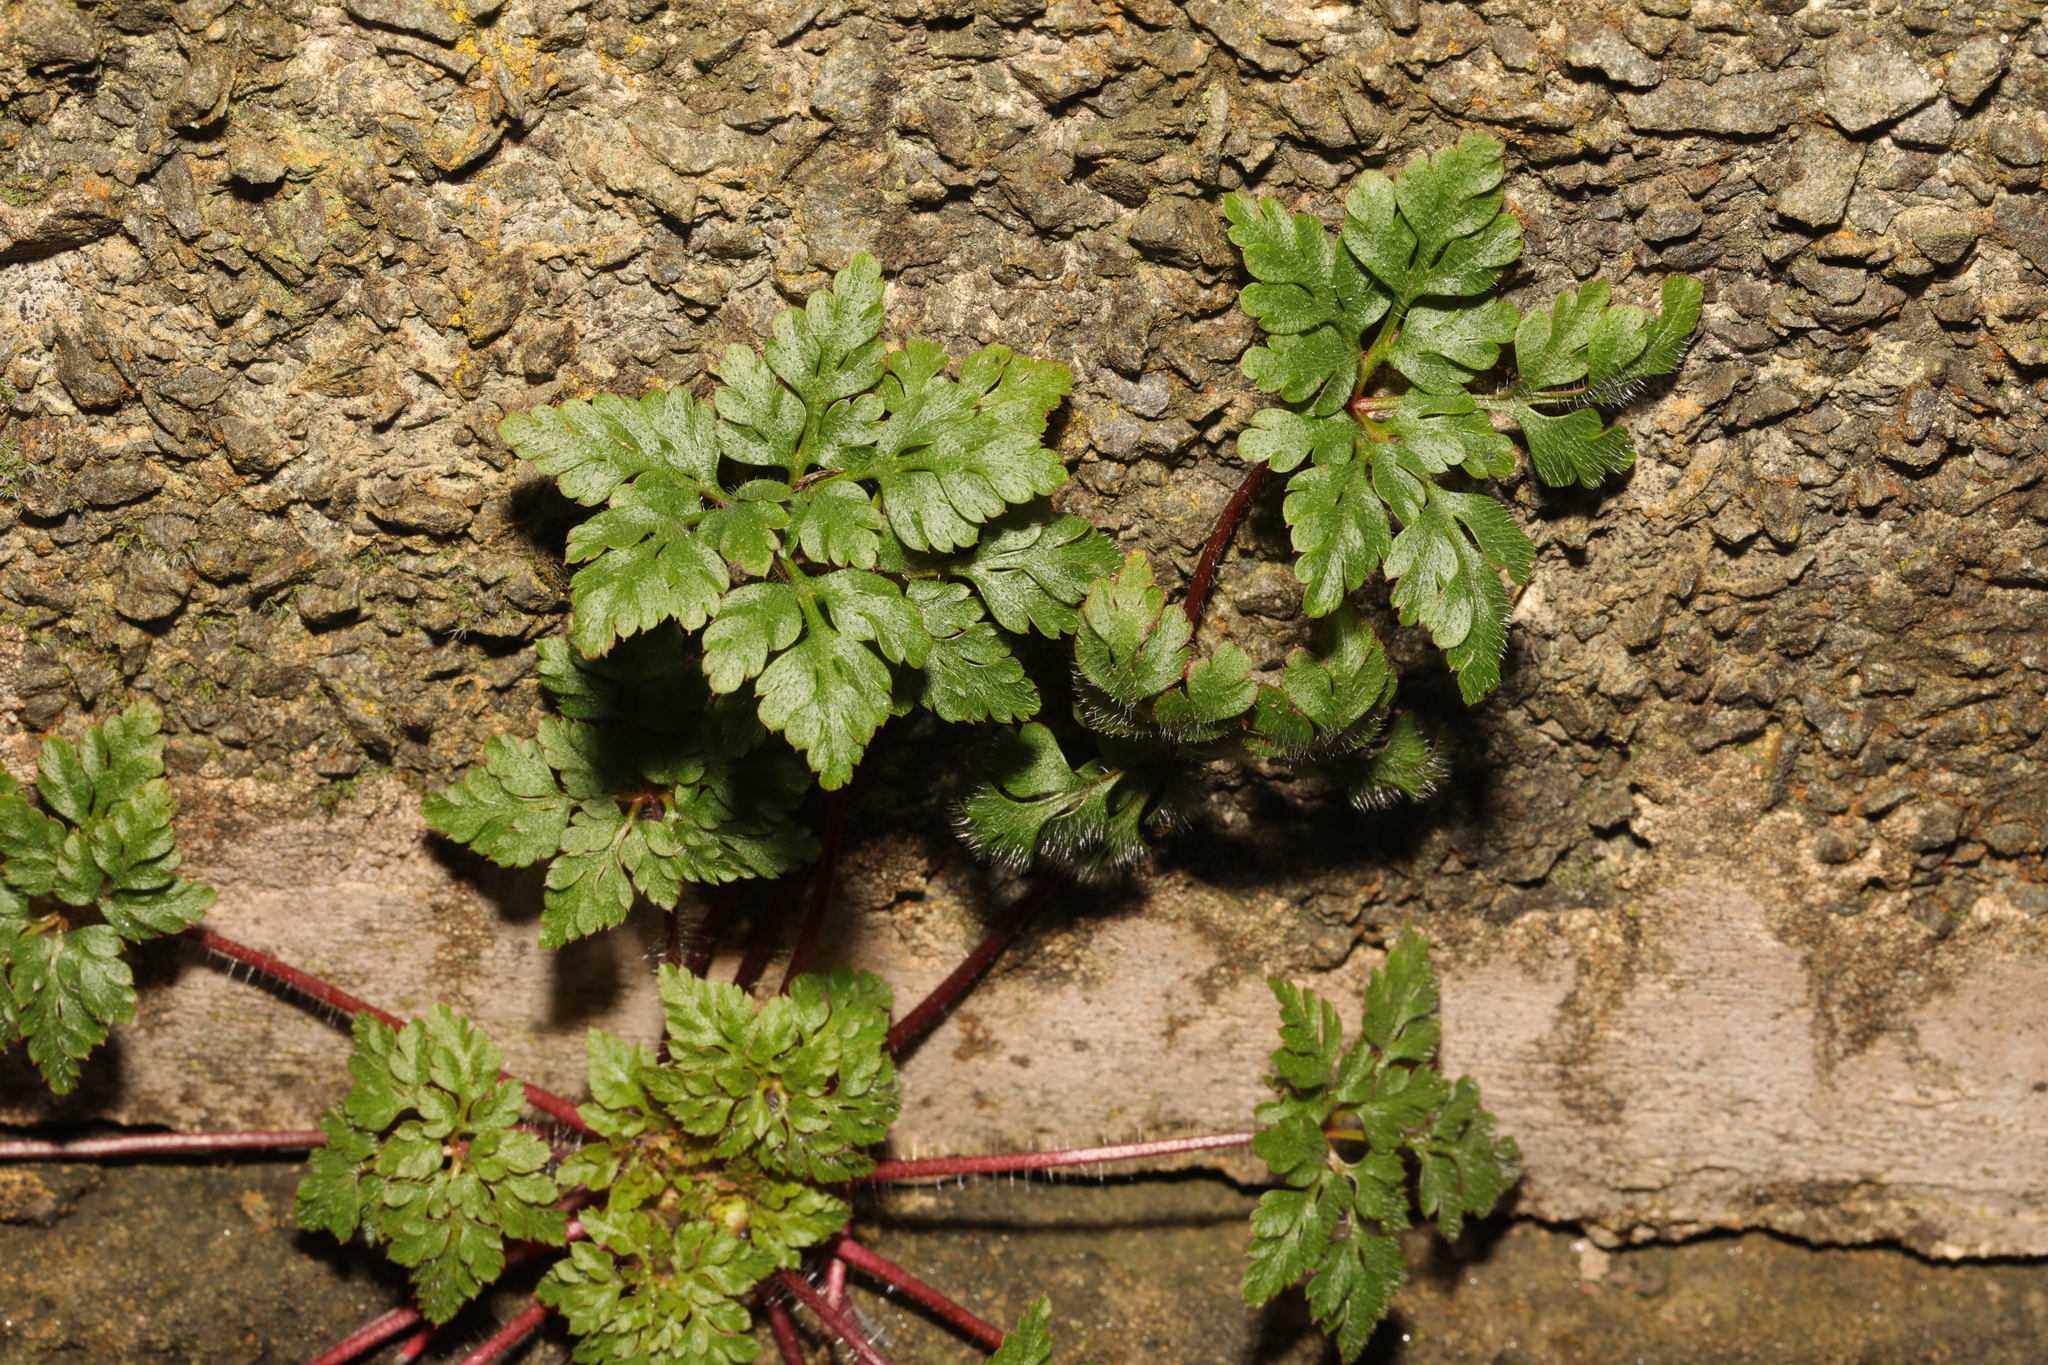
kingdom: Plantae
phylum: Tracheophyta
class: Magnoliopsida
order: Geraniales
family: Geraniaceae
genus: Geranium
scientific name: Geranium robertianum
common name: Herb-robert
